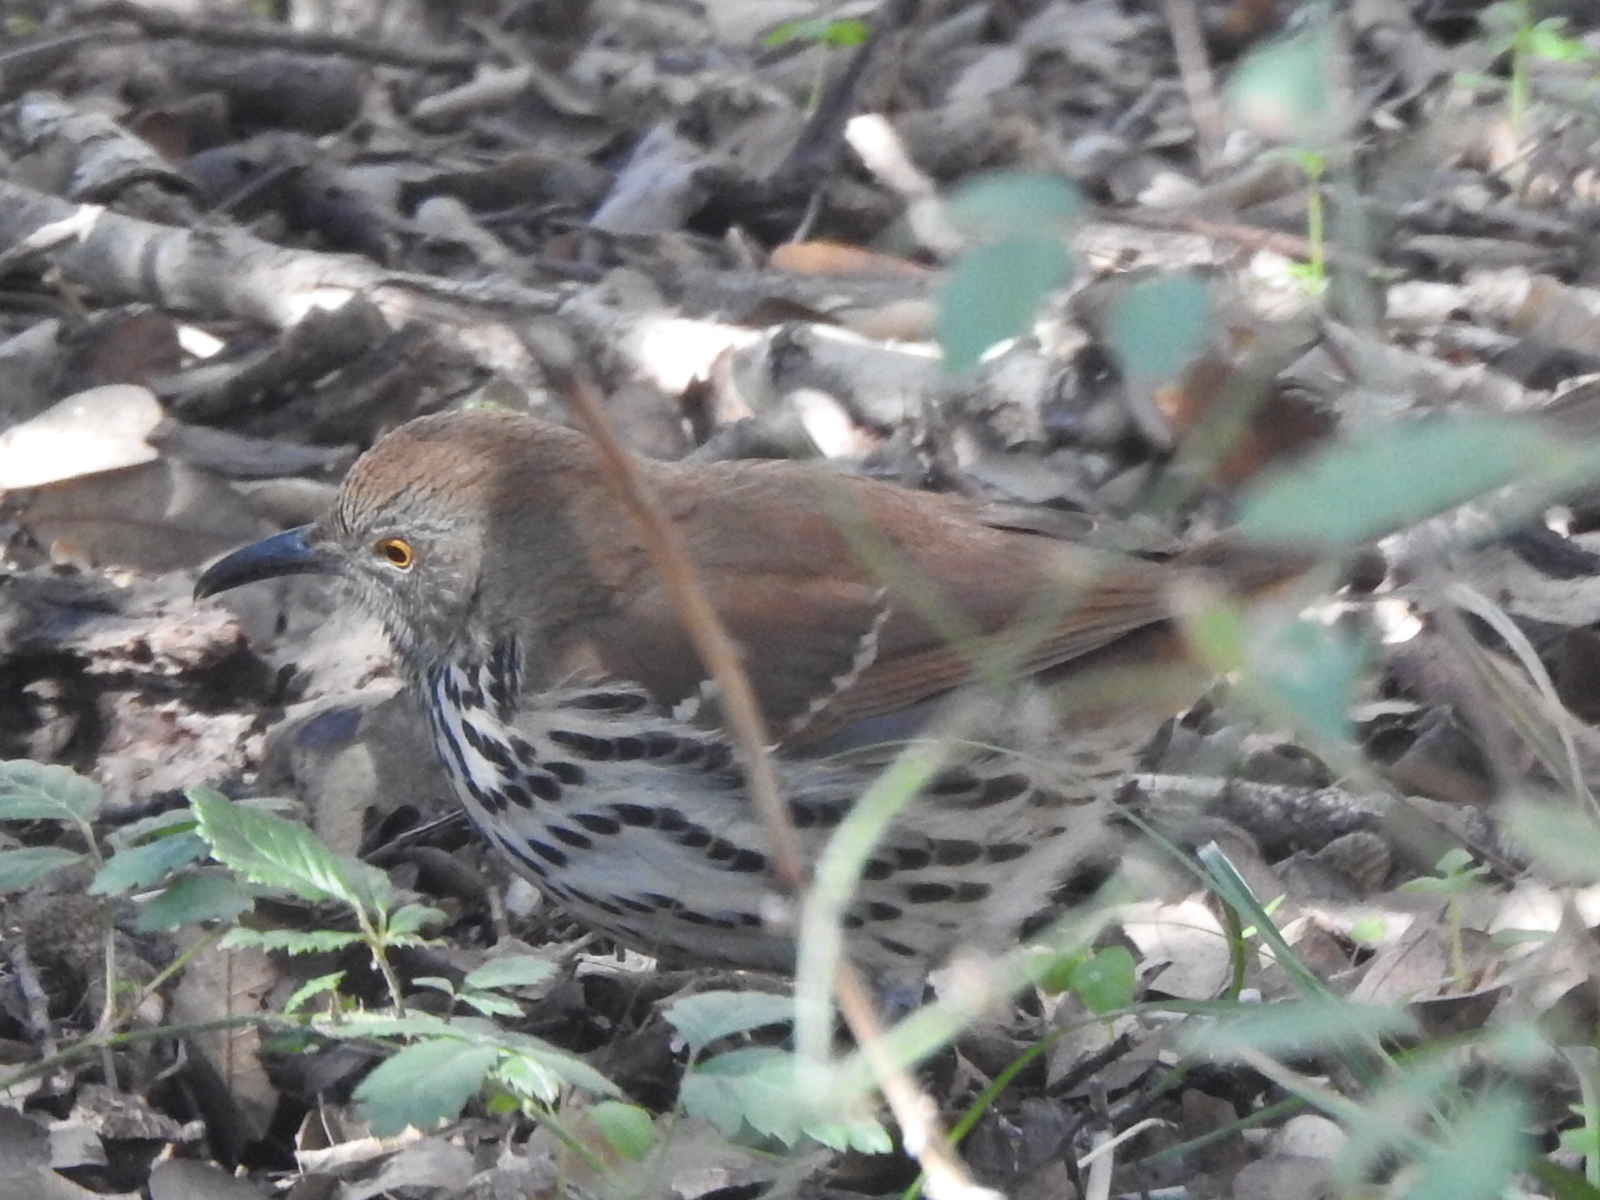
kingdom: Animalia
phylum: Chordata
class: Aves
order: Passeriformes
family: Mimidae
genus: Toxostoma
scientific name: Toxostoma rufum
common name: Brown thrasher
